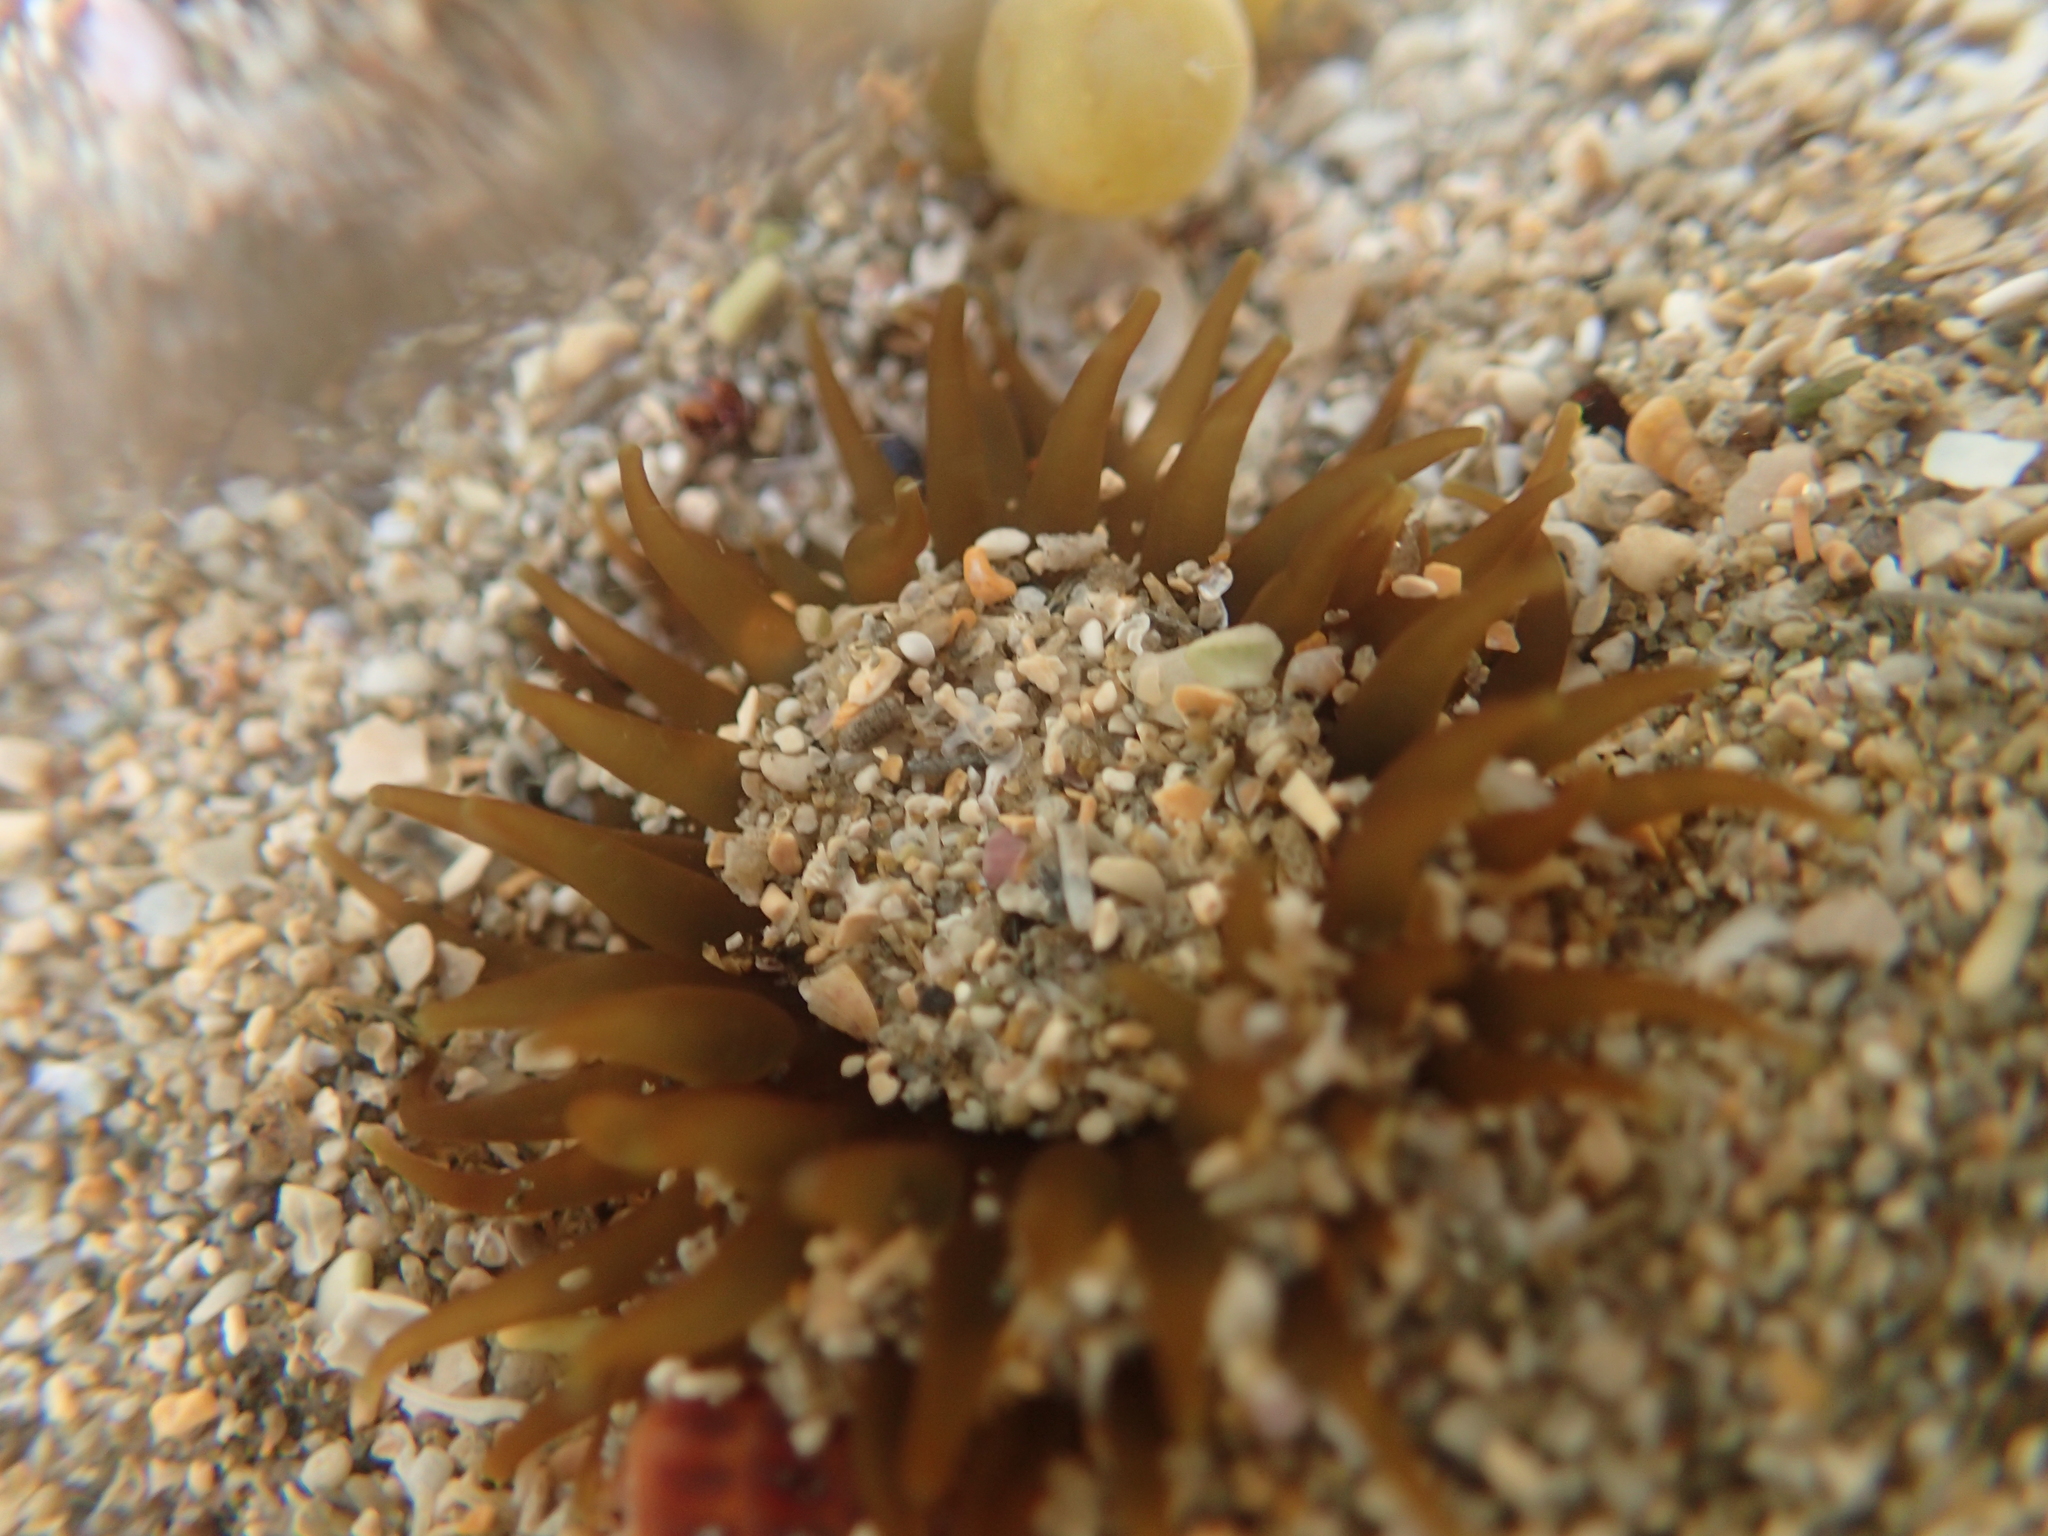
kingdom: Animalia
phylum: Cnidaria
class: Anthozoa
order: Actiniaria
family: Actiniidae
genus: Isactinia
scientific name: Isactinia olivacea
